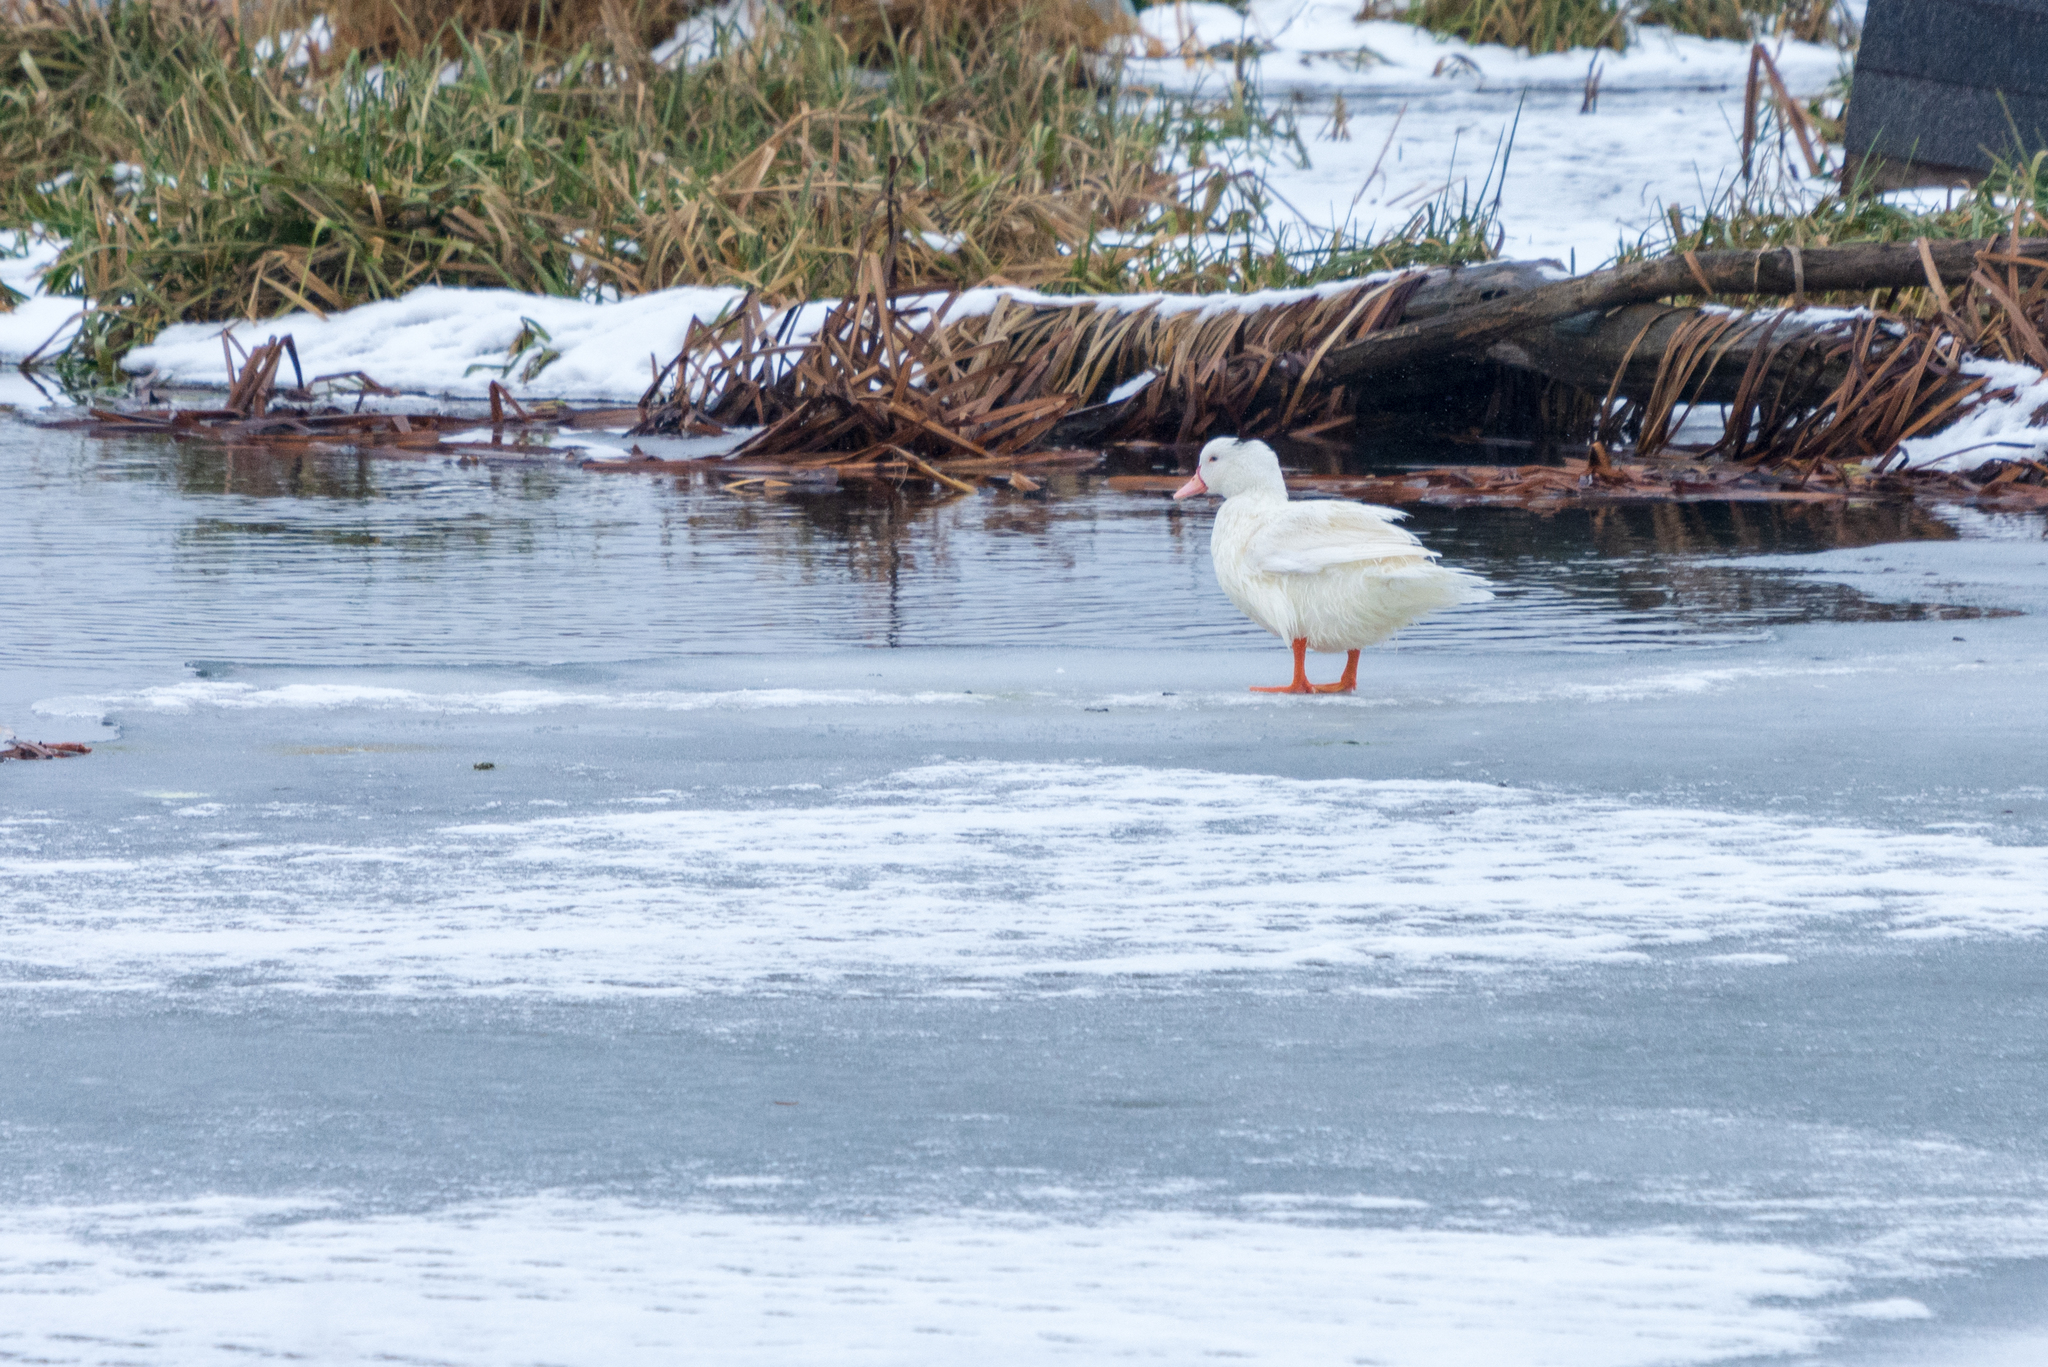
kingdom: Animalia
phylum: Chordata
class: Aves
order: Anseriformes
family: Anatidae
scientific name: Anatidae
